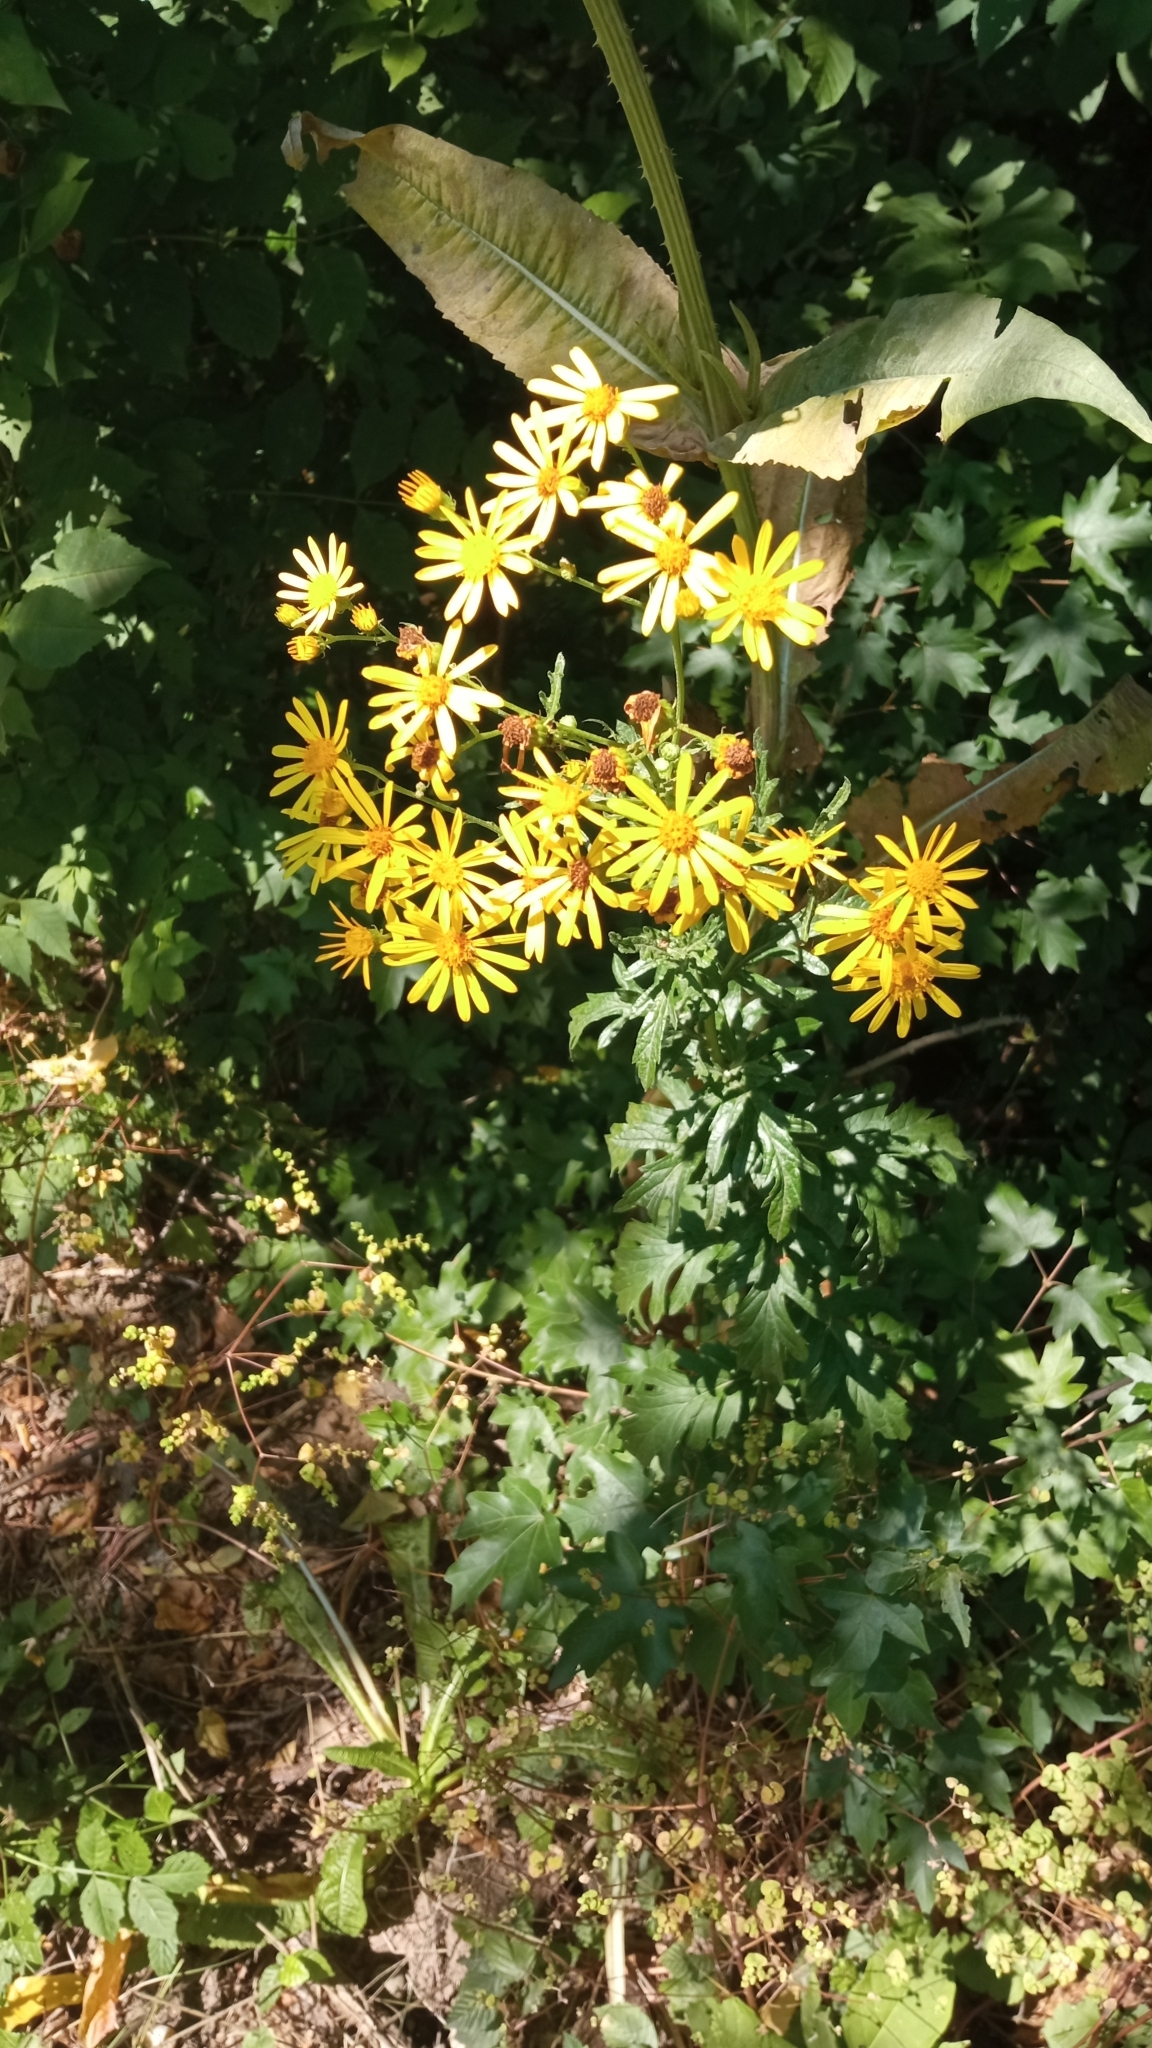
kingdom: Plantae
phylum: Tracheophyta
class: Magnoliopsida
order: Asterales
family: Asteraceae
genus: Jacobaea
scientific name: Jacobaea vulgaris
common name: Stinking willie
